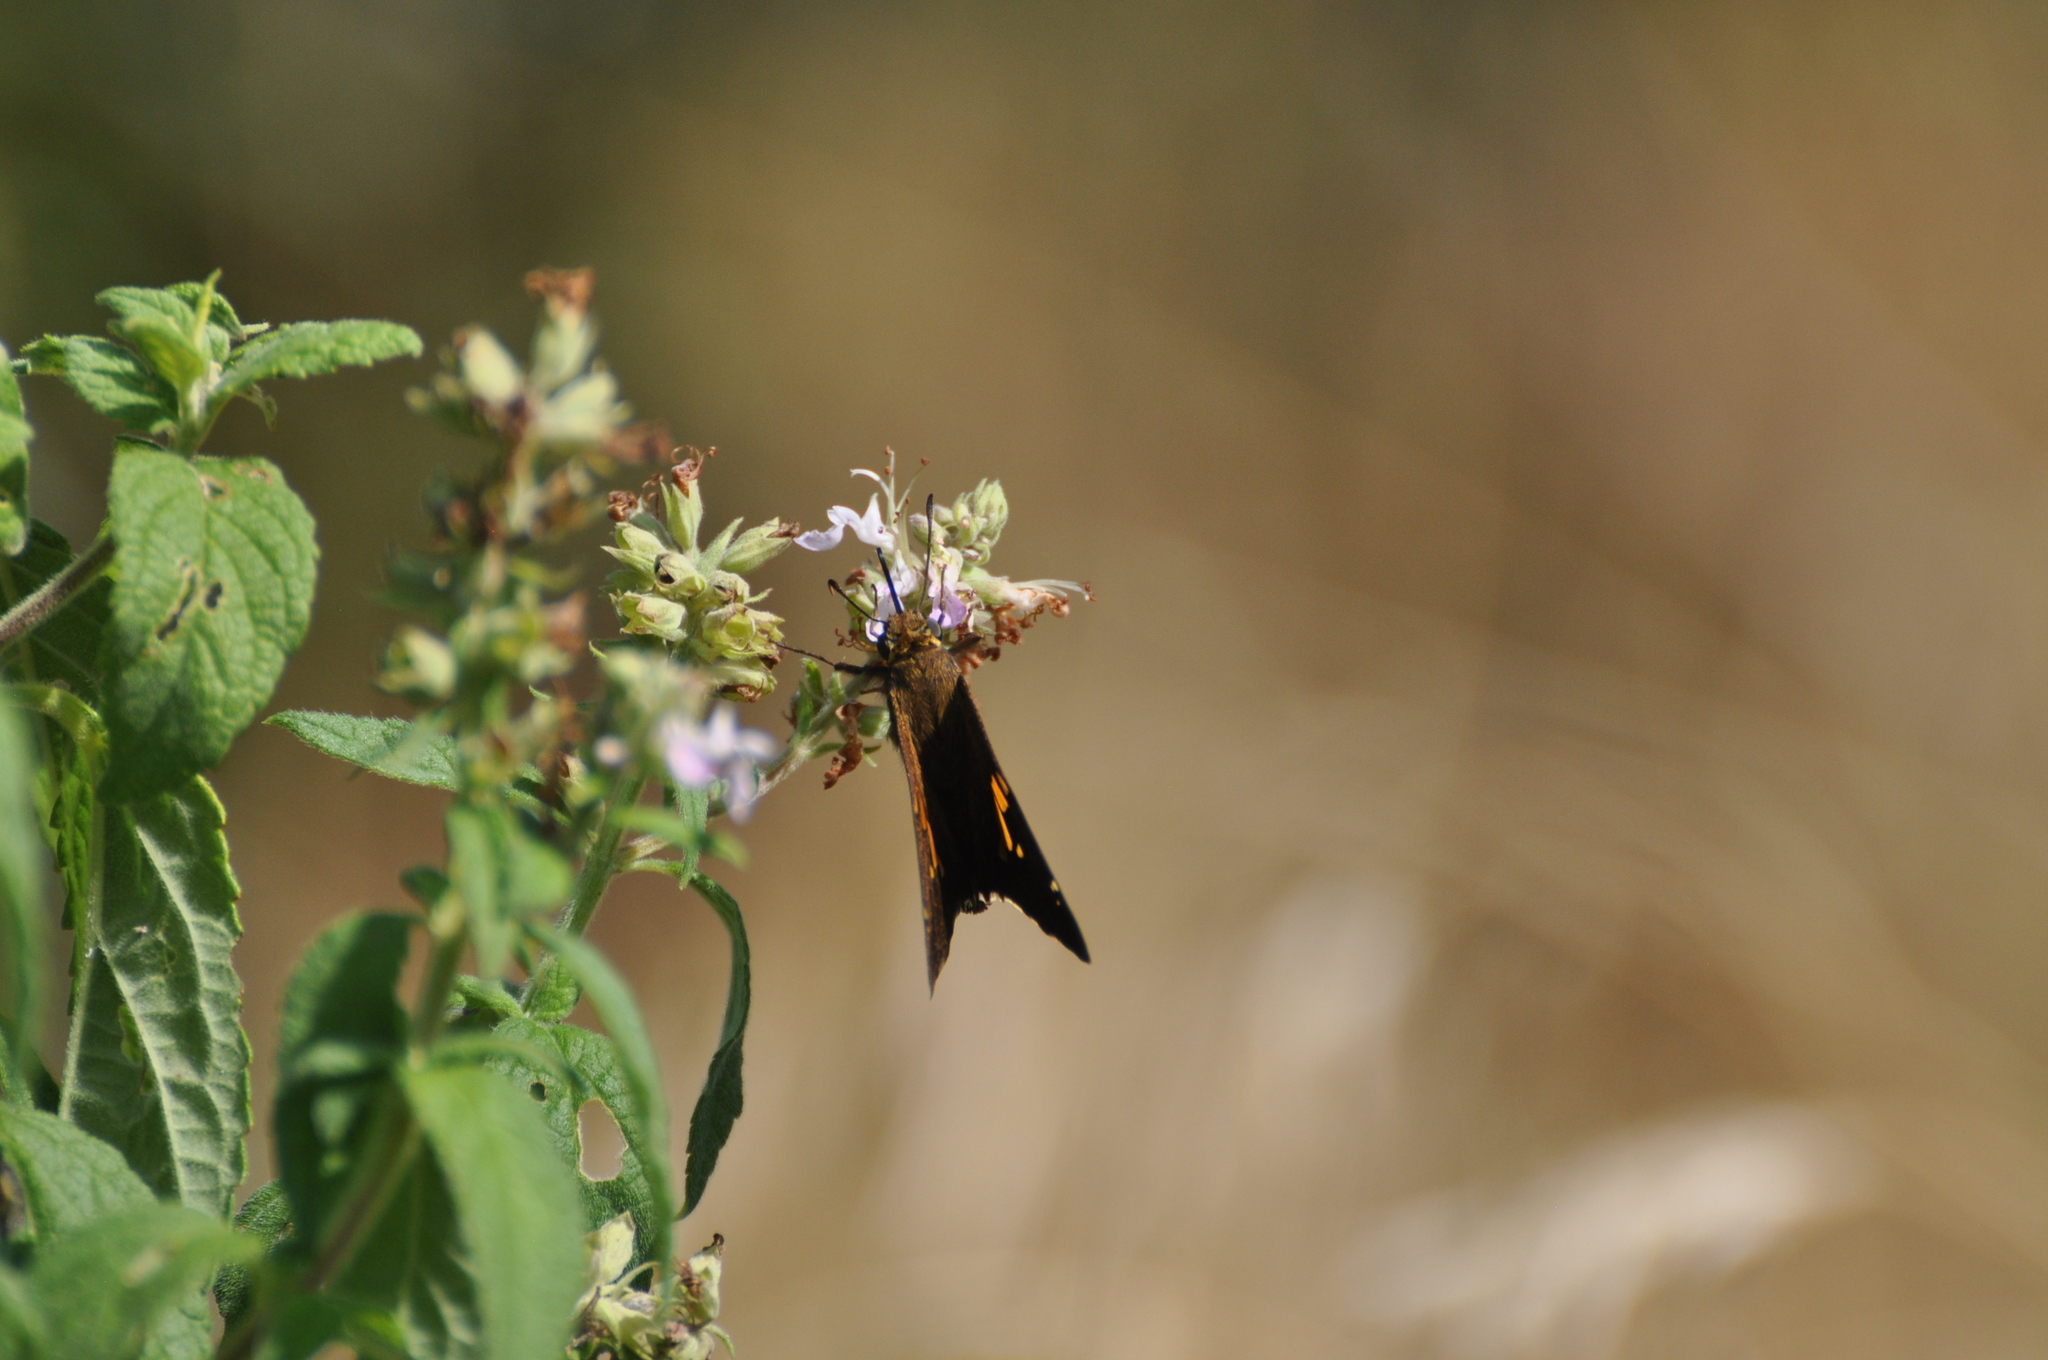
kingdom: Animalia
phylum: Arthropoda
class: Insecta
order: Lepidoptera
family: Hesperiidae
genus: Epargyreus
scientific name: Epargyreus clarus
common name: Silver-spotted skipper
